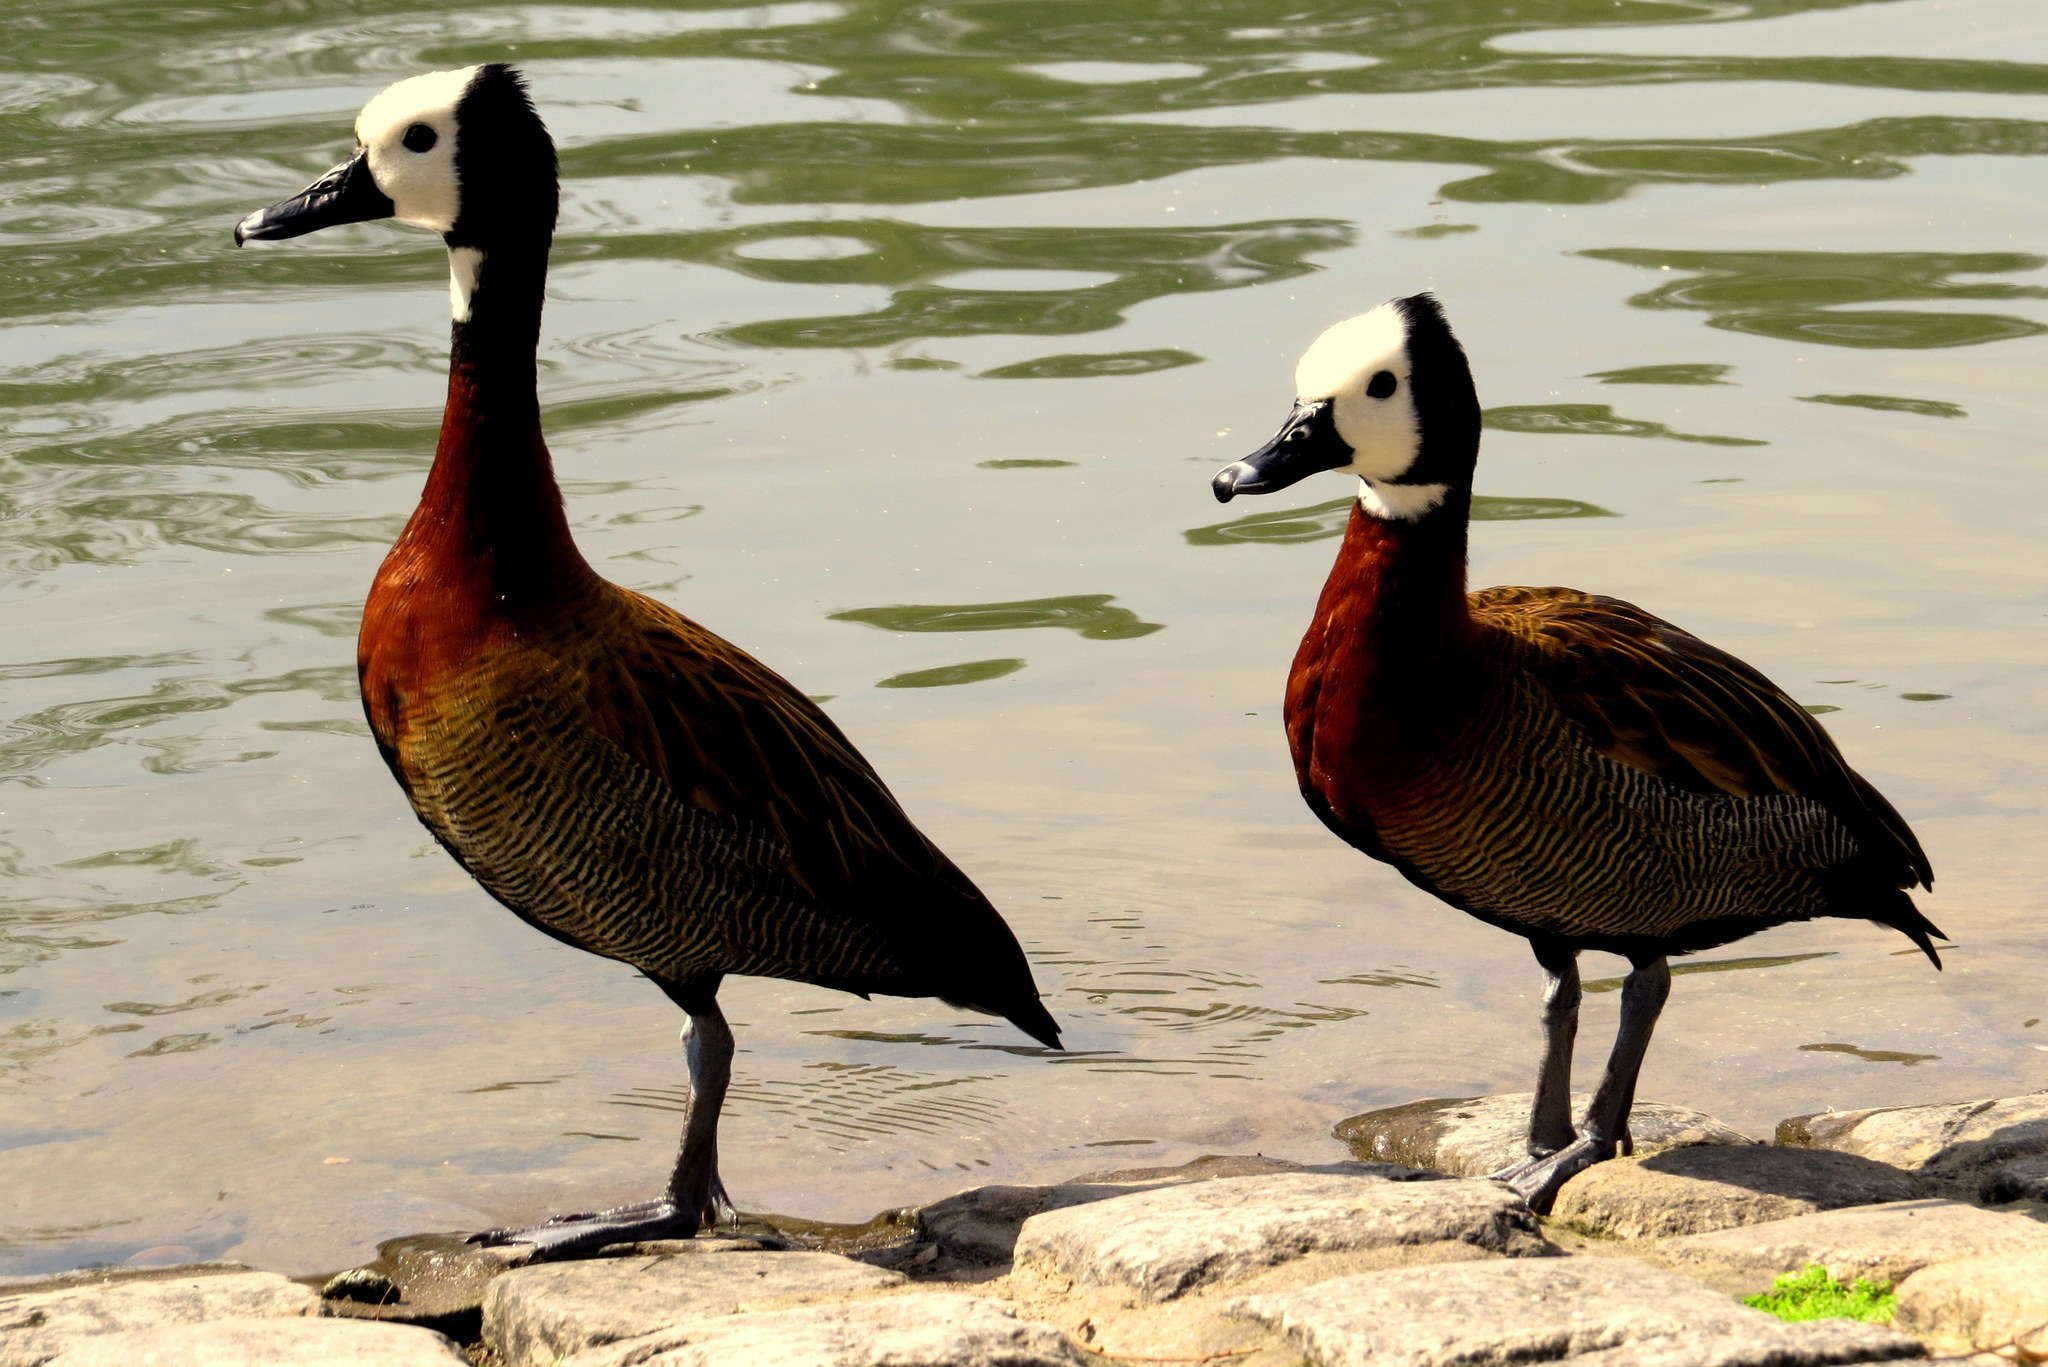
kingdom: Animalia
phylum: Chordata
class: Aves
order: Anseriformes
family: Anatidae
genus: Dendrocygna
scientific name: Dendrocygna viduata
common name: White-faced whistling duck
